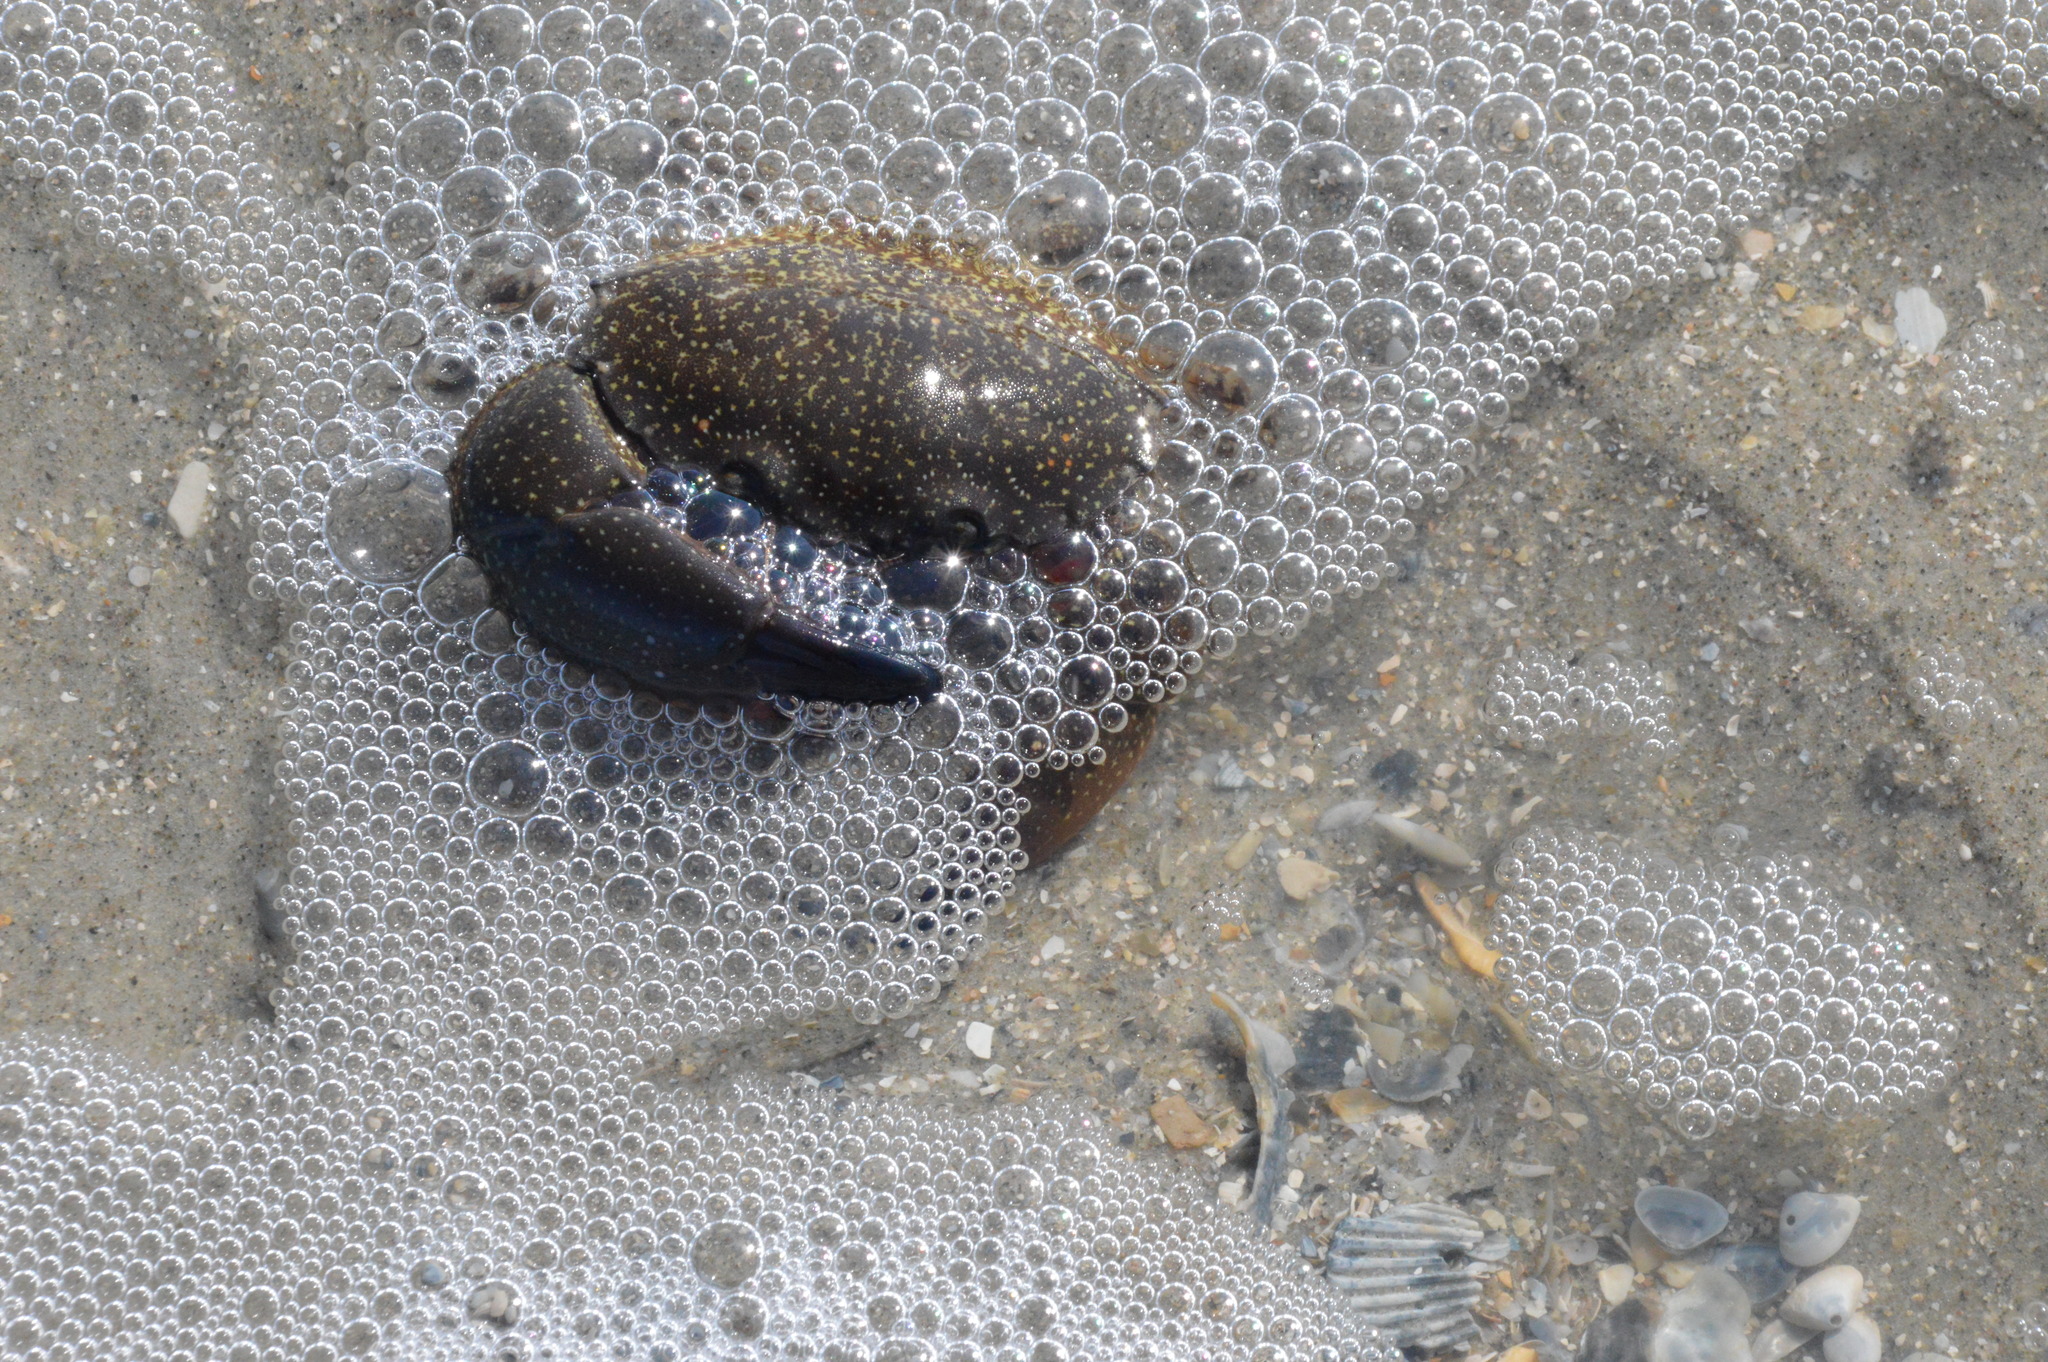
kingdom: Animalia
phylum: Arthropoda
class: Malacostraca
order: Decapoda
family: Menippidae
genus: Menippe
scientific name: Menippe adina
